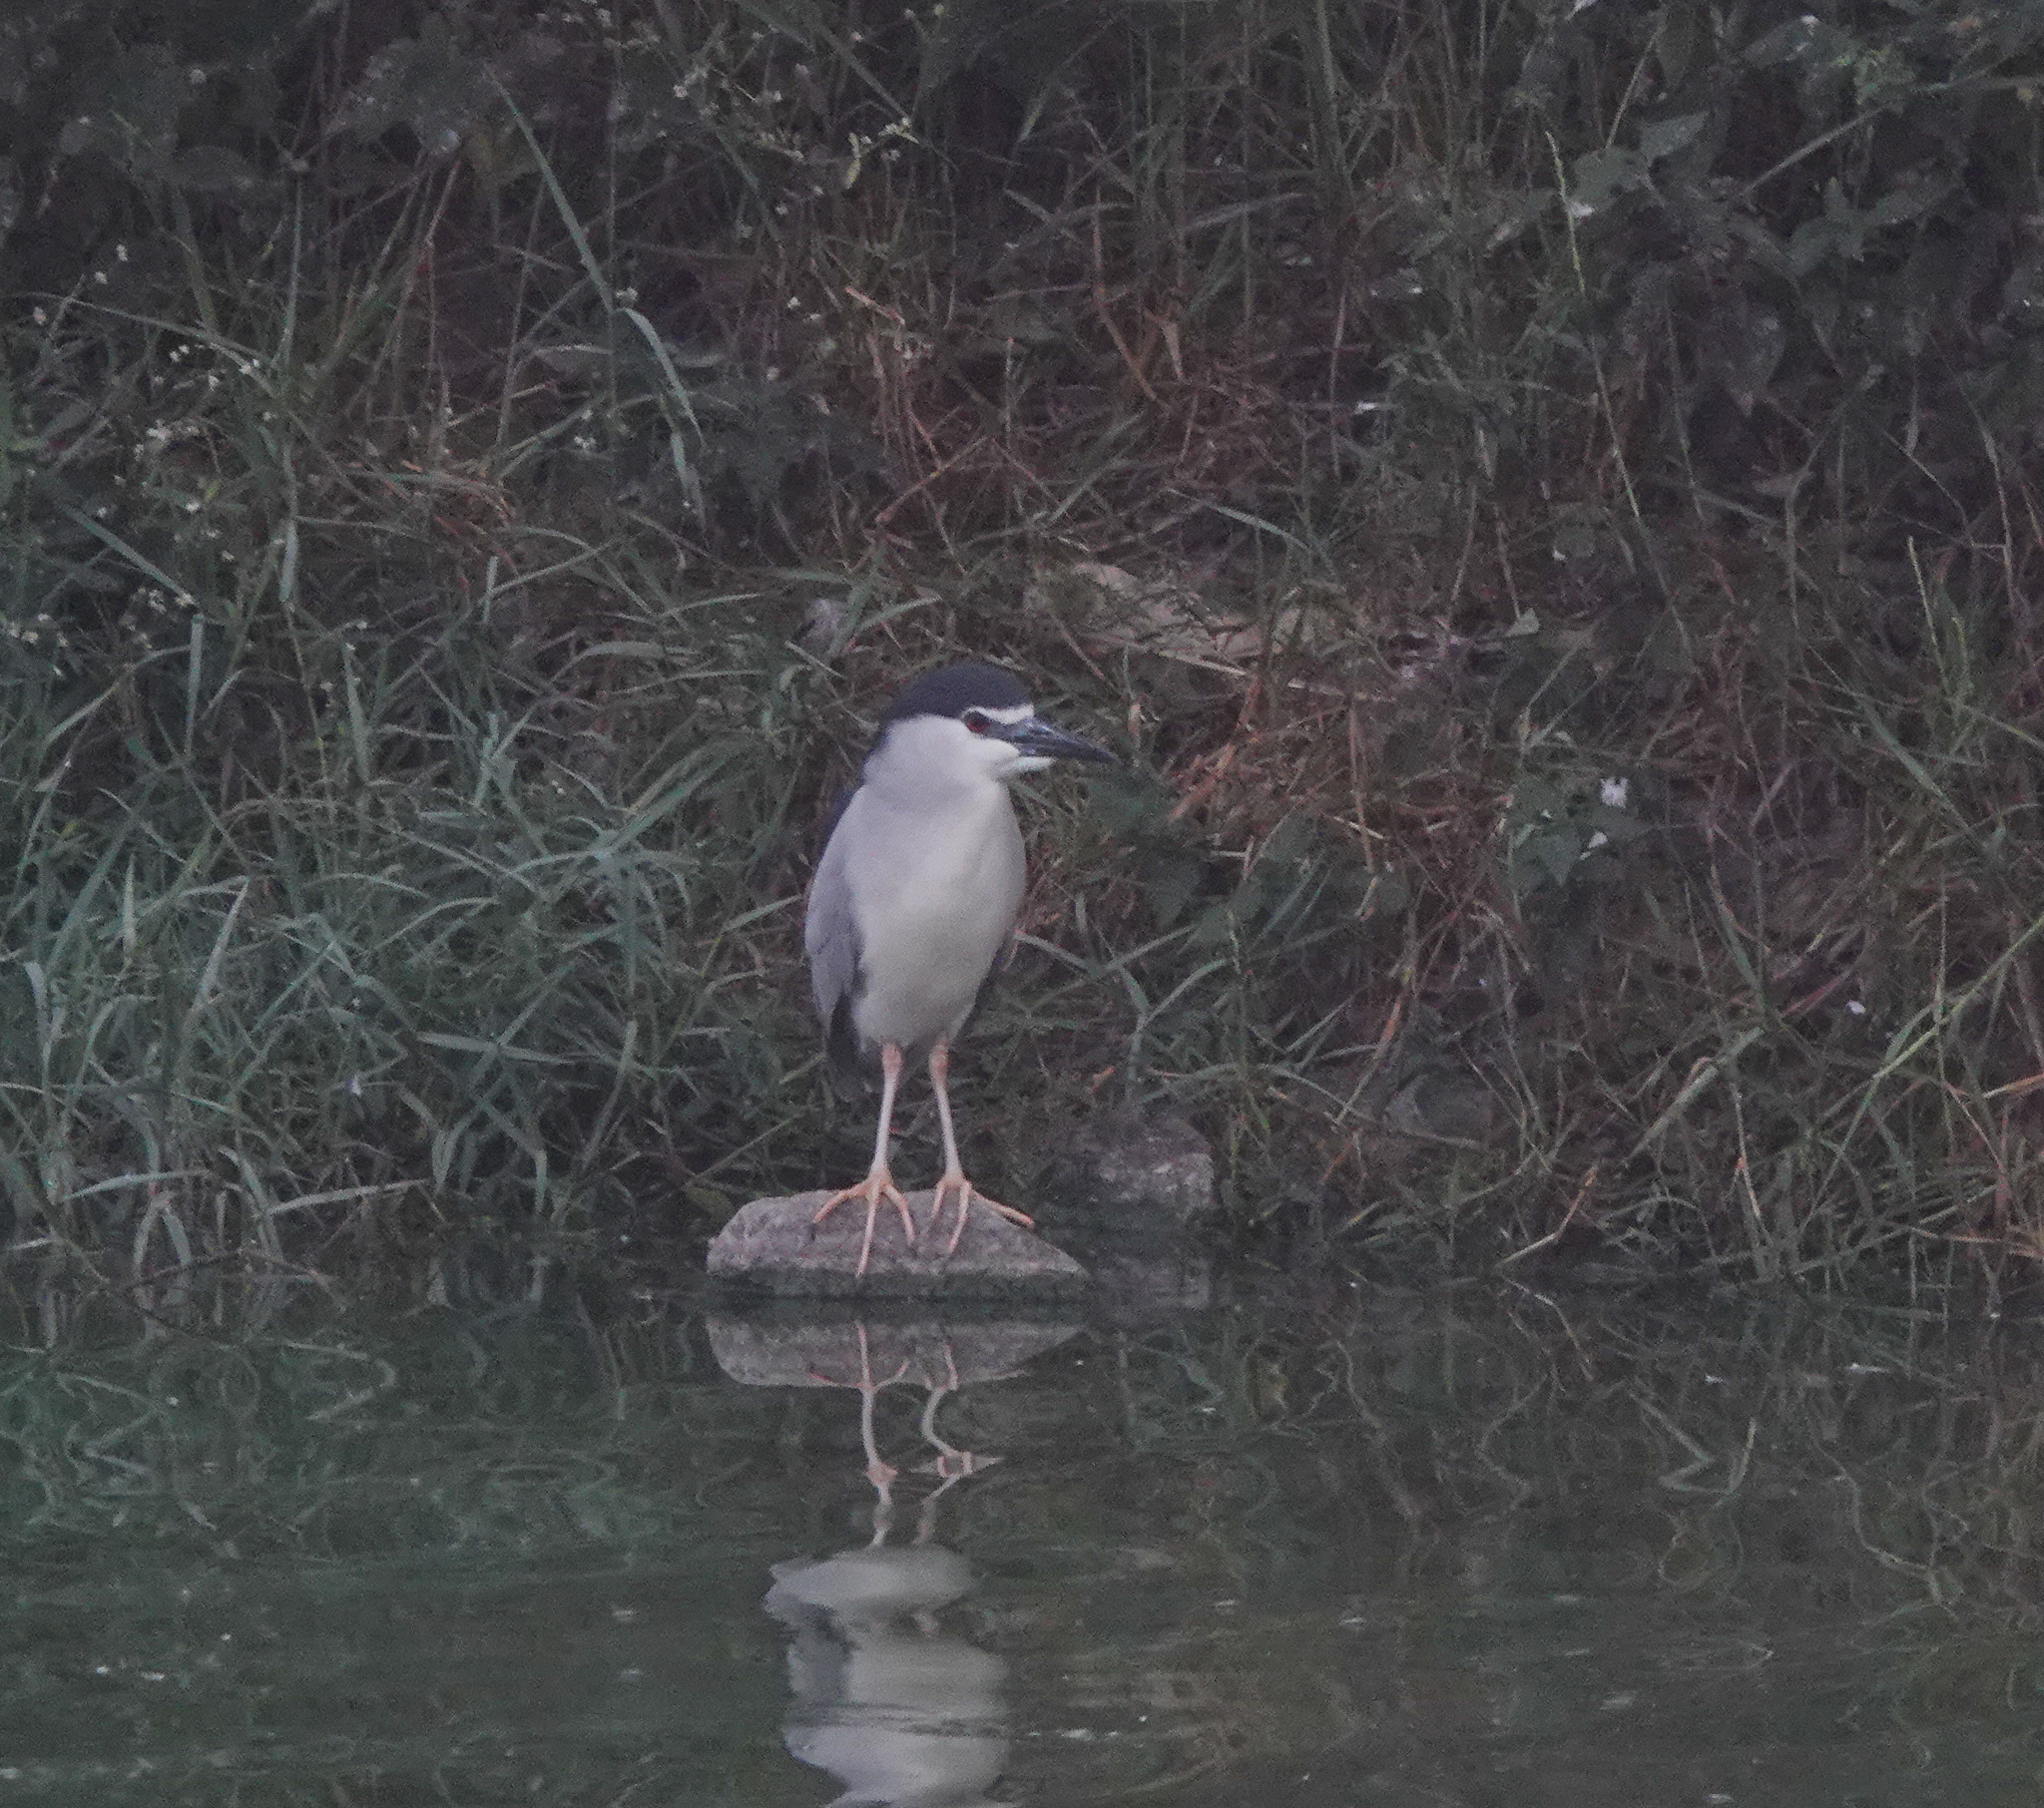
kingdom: Animalia
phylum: Chordata
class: Aves
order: Pelecaniformes
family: Ardeidae
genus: Nycticorax
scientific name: Nycticorax nycticorax
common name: Black-crowned night heron
